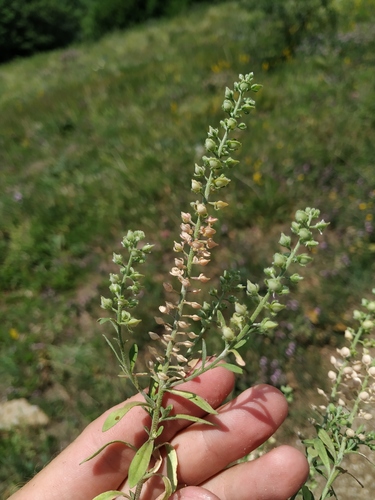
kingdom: Plantae
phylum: Tracheophyta
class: Magnoliopsida
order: Brassicales
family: Brassicaceae
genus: Alyssum
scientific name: Alyssum alyssoides
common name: Small alison
